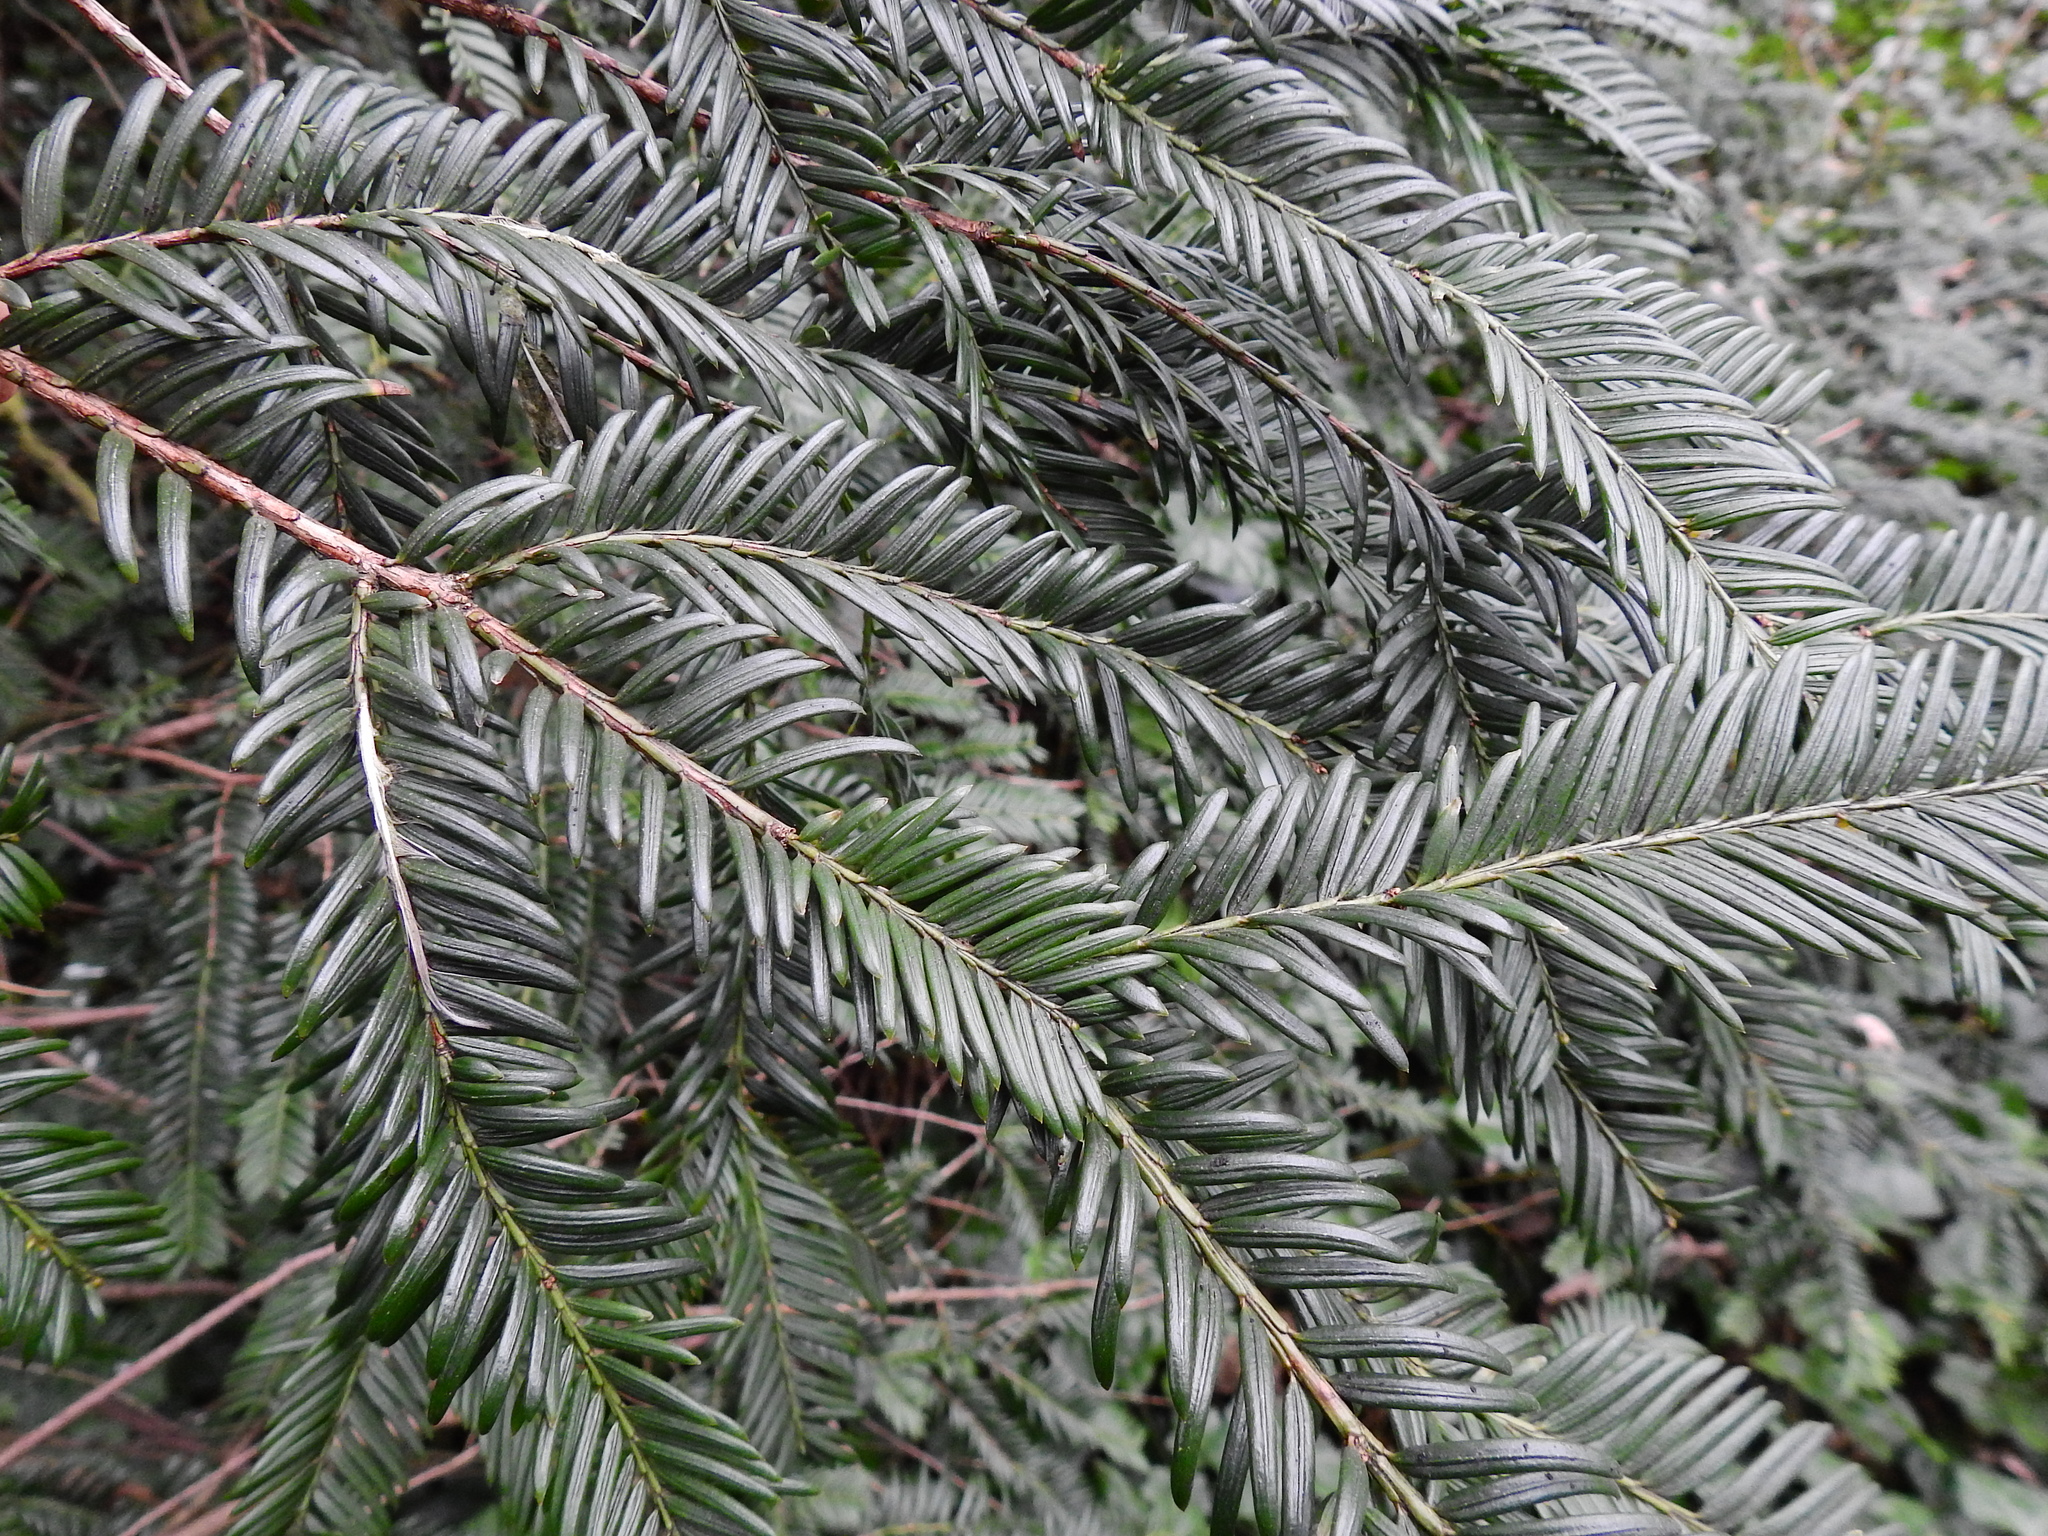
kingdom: Plantae
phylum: Tracheophyta
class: Pinopsida
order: Pinales
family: Taxaceae
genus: Taxus
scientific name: Taxus baccata
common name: Yew
